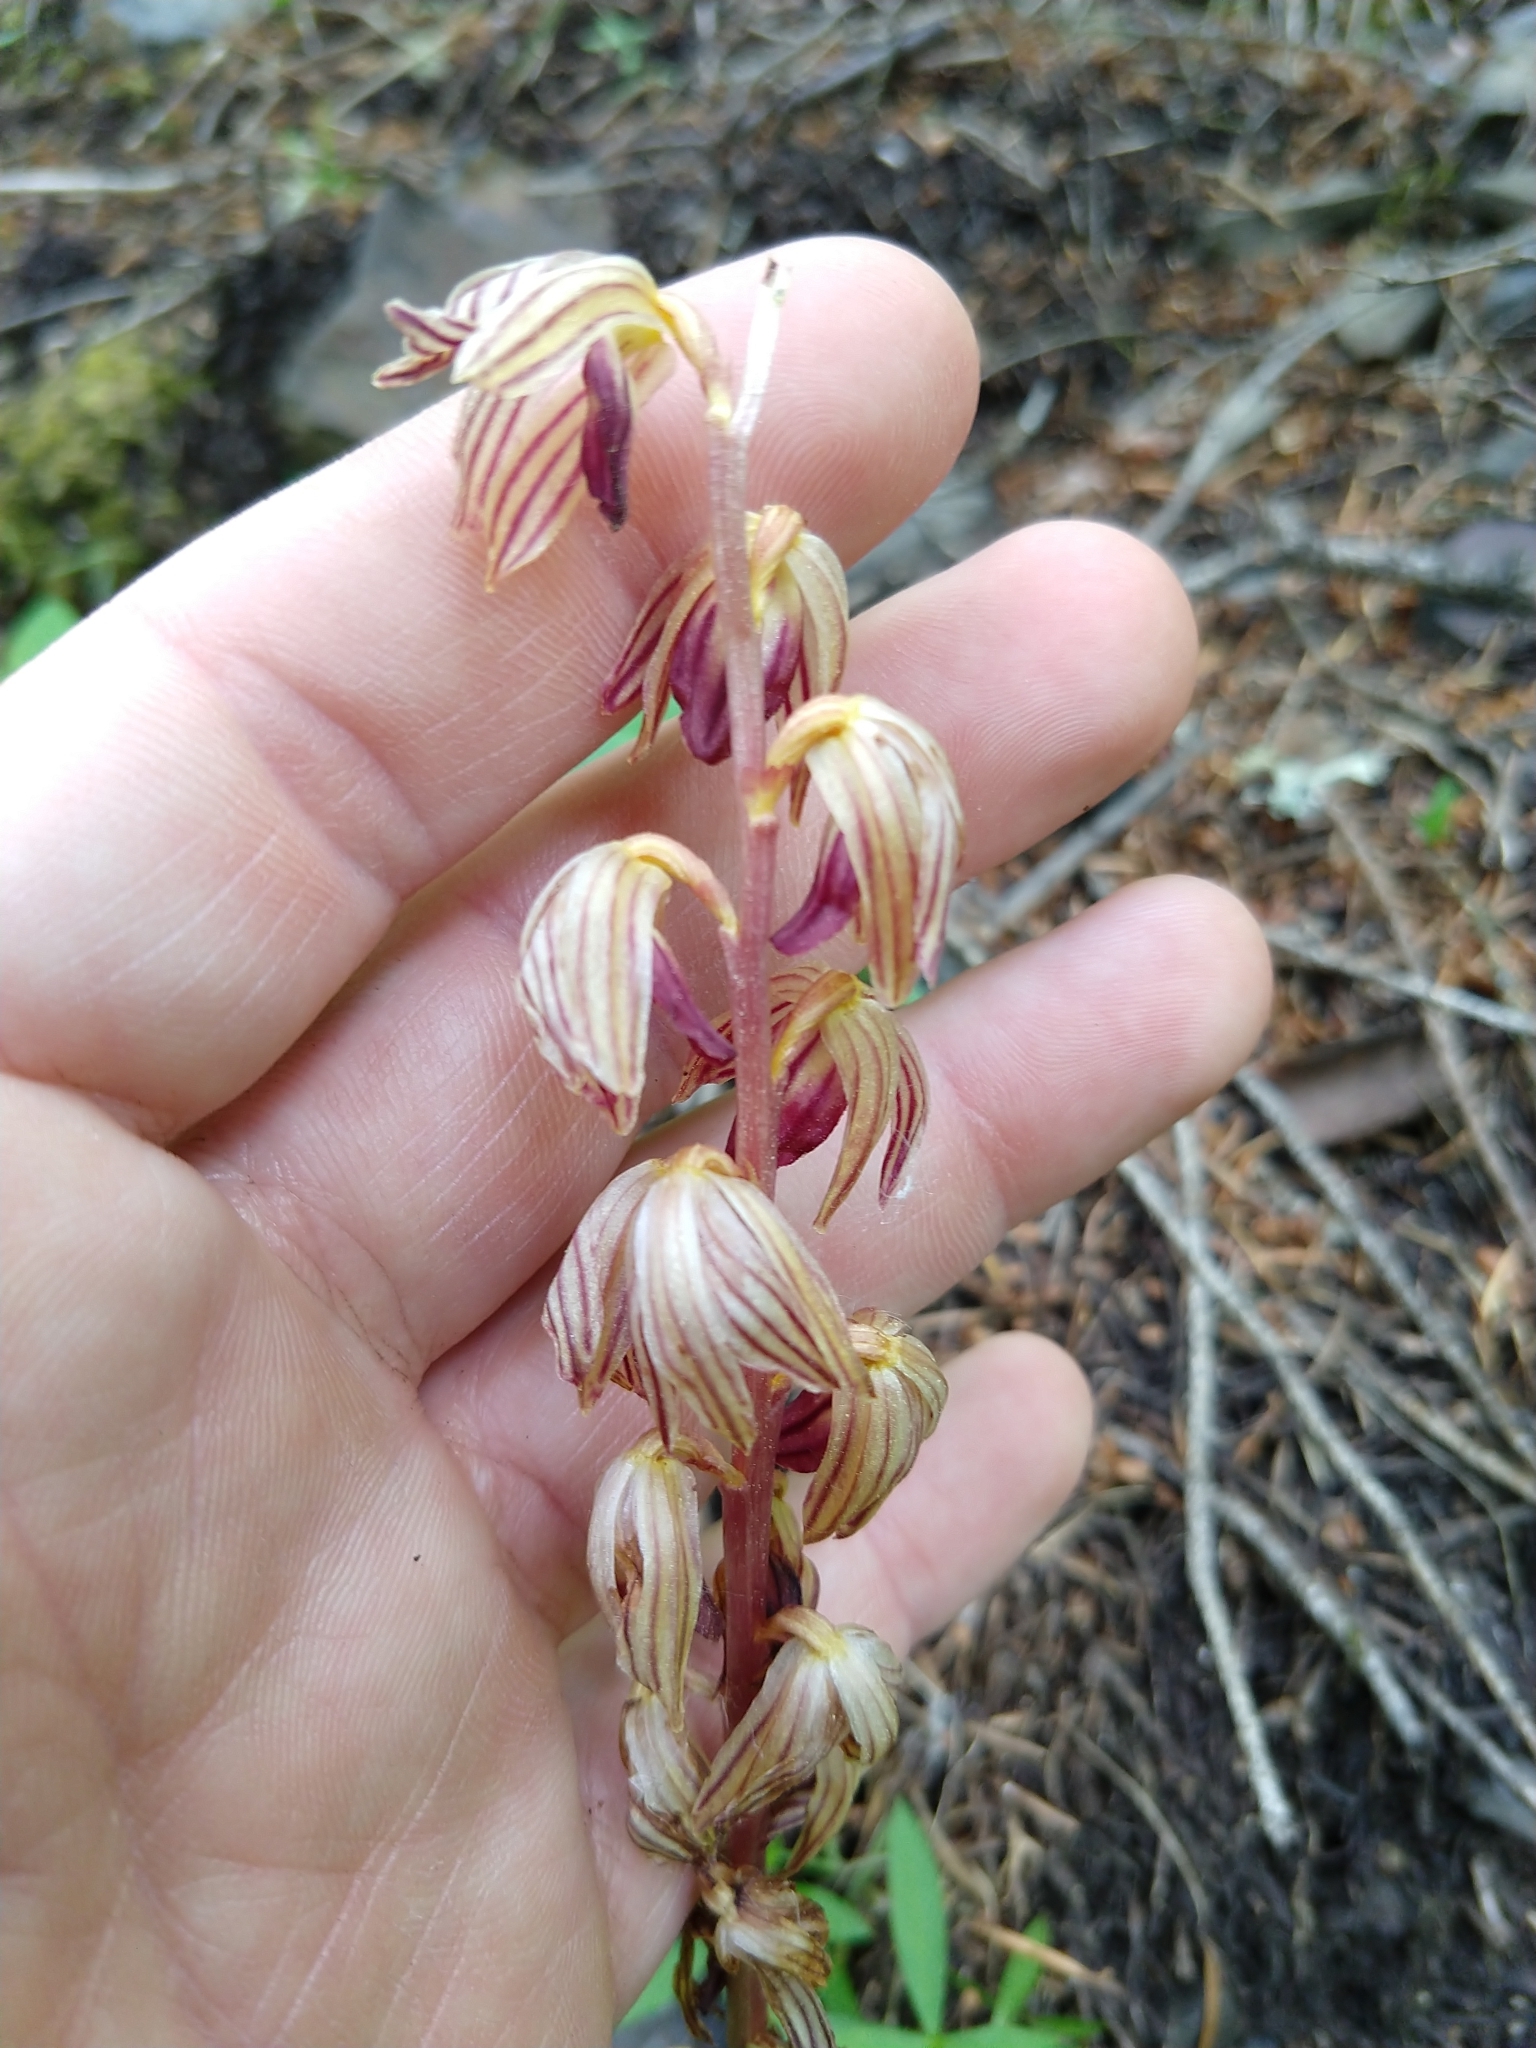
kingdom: Plantae
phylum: Tracheophyta
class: Liliopsida
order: Asparagales
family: Orchidaceae
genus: Corallorhiza
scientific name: Corallorhiza striata
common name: Hooded coralroot
